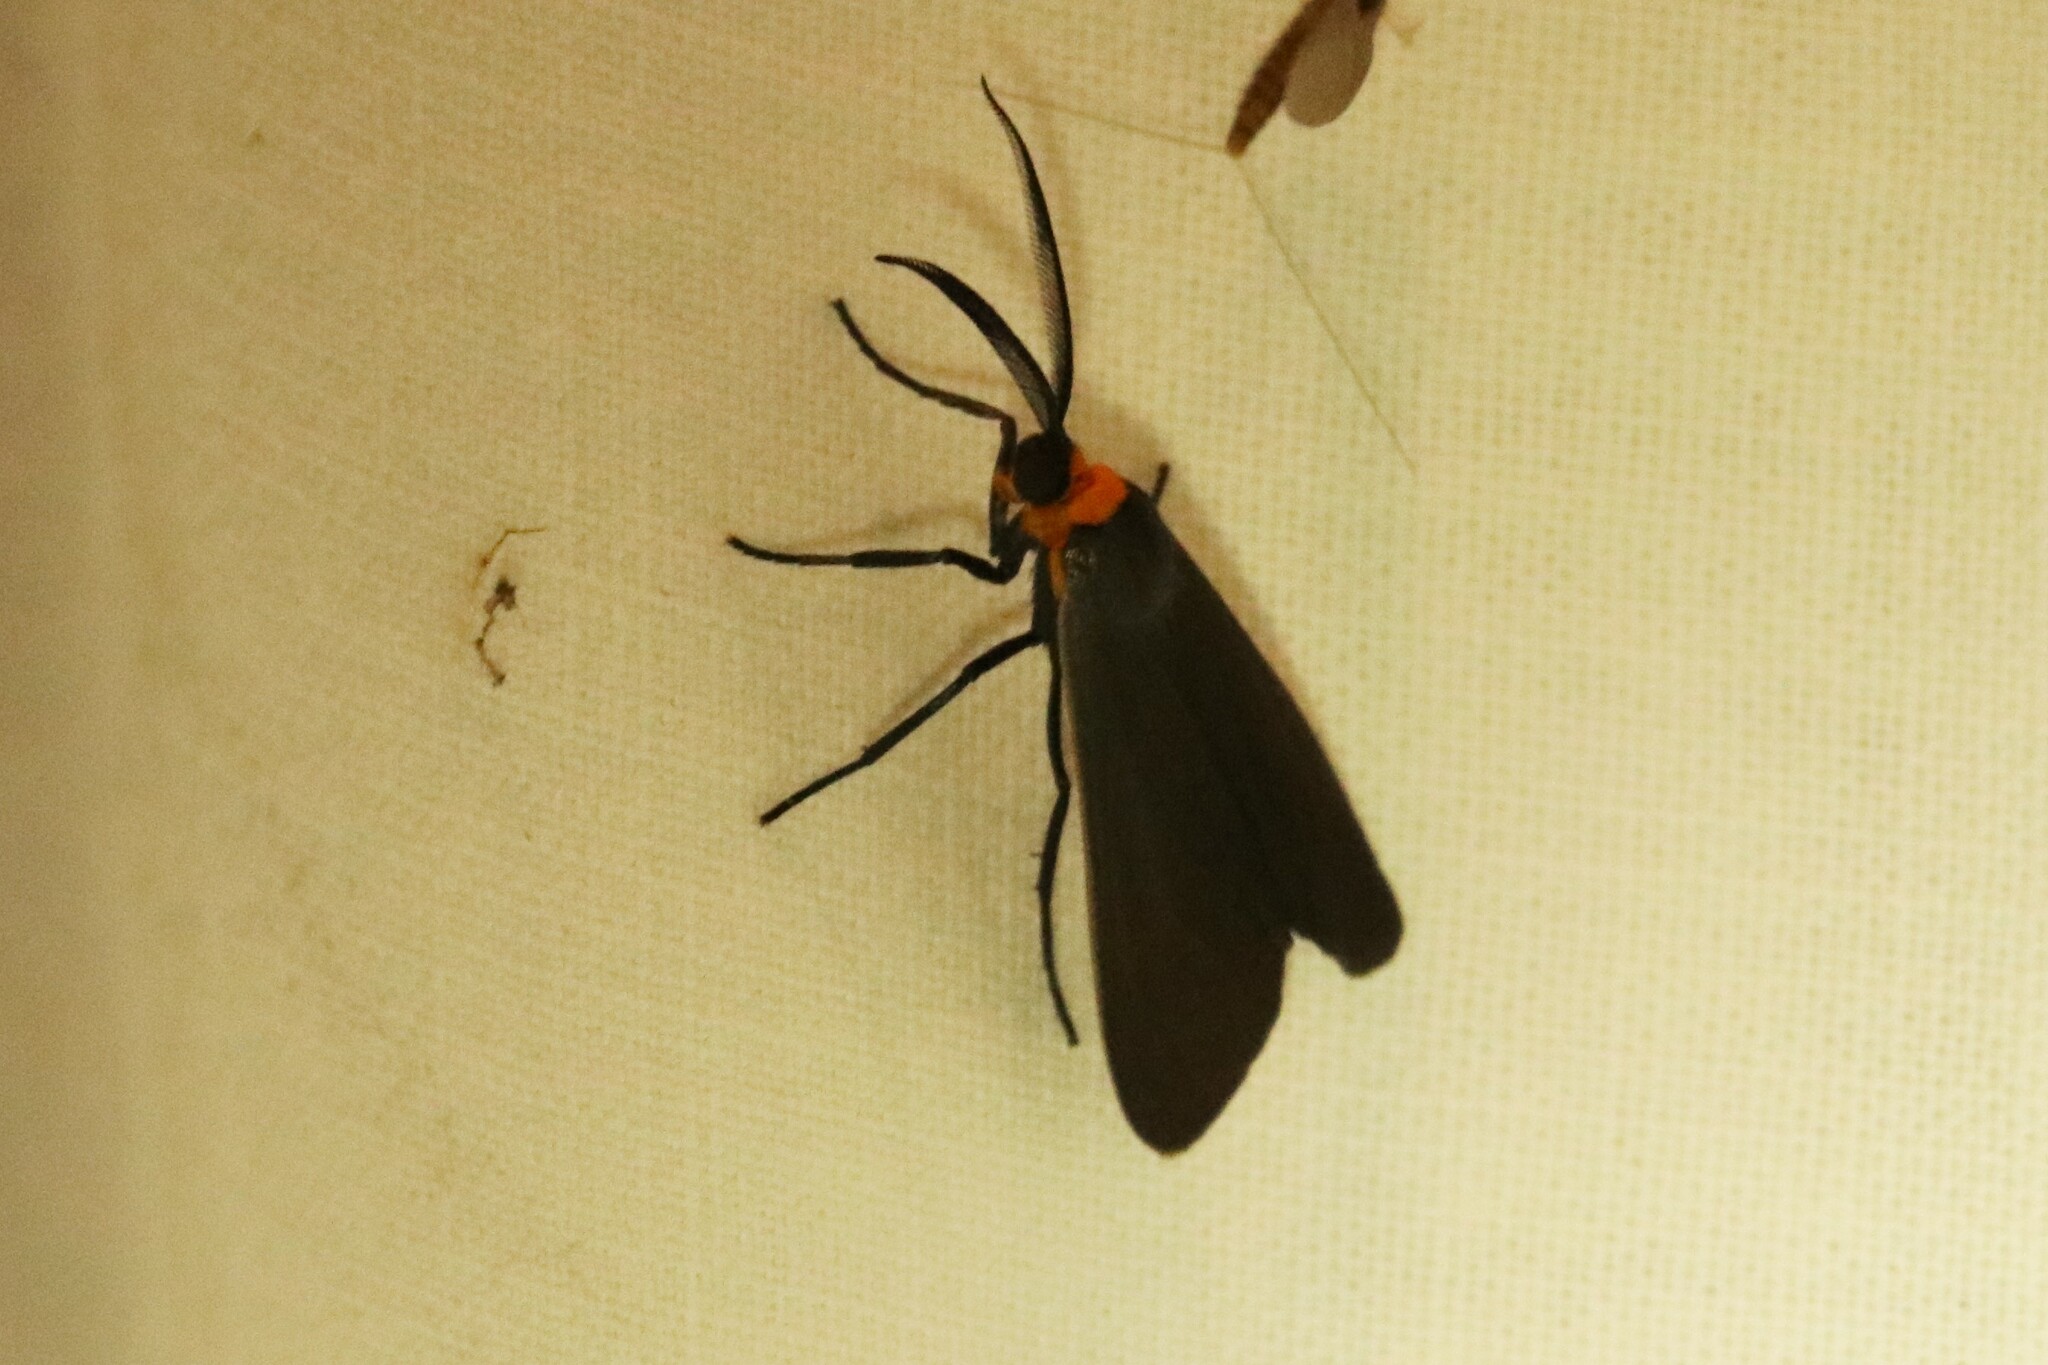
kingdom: Animalia
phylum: Arthropoda
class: Insecta
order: Lepidoptera
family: Erebidae
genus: Cisseps
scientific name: Cisseps fulvicollis
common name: Yellow-collared scape moth
